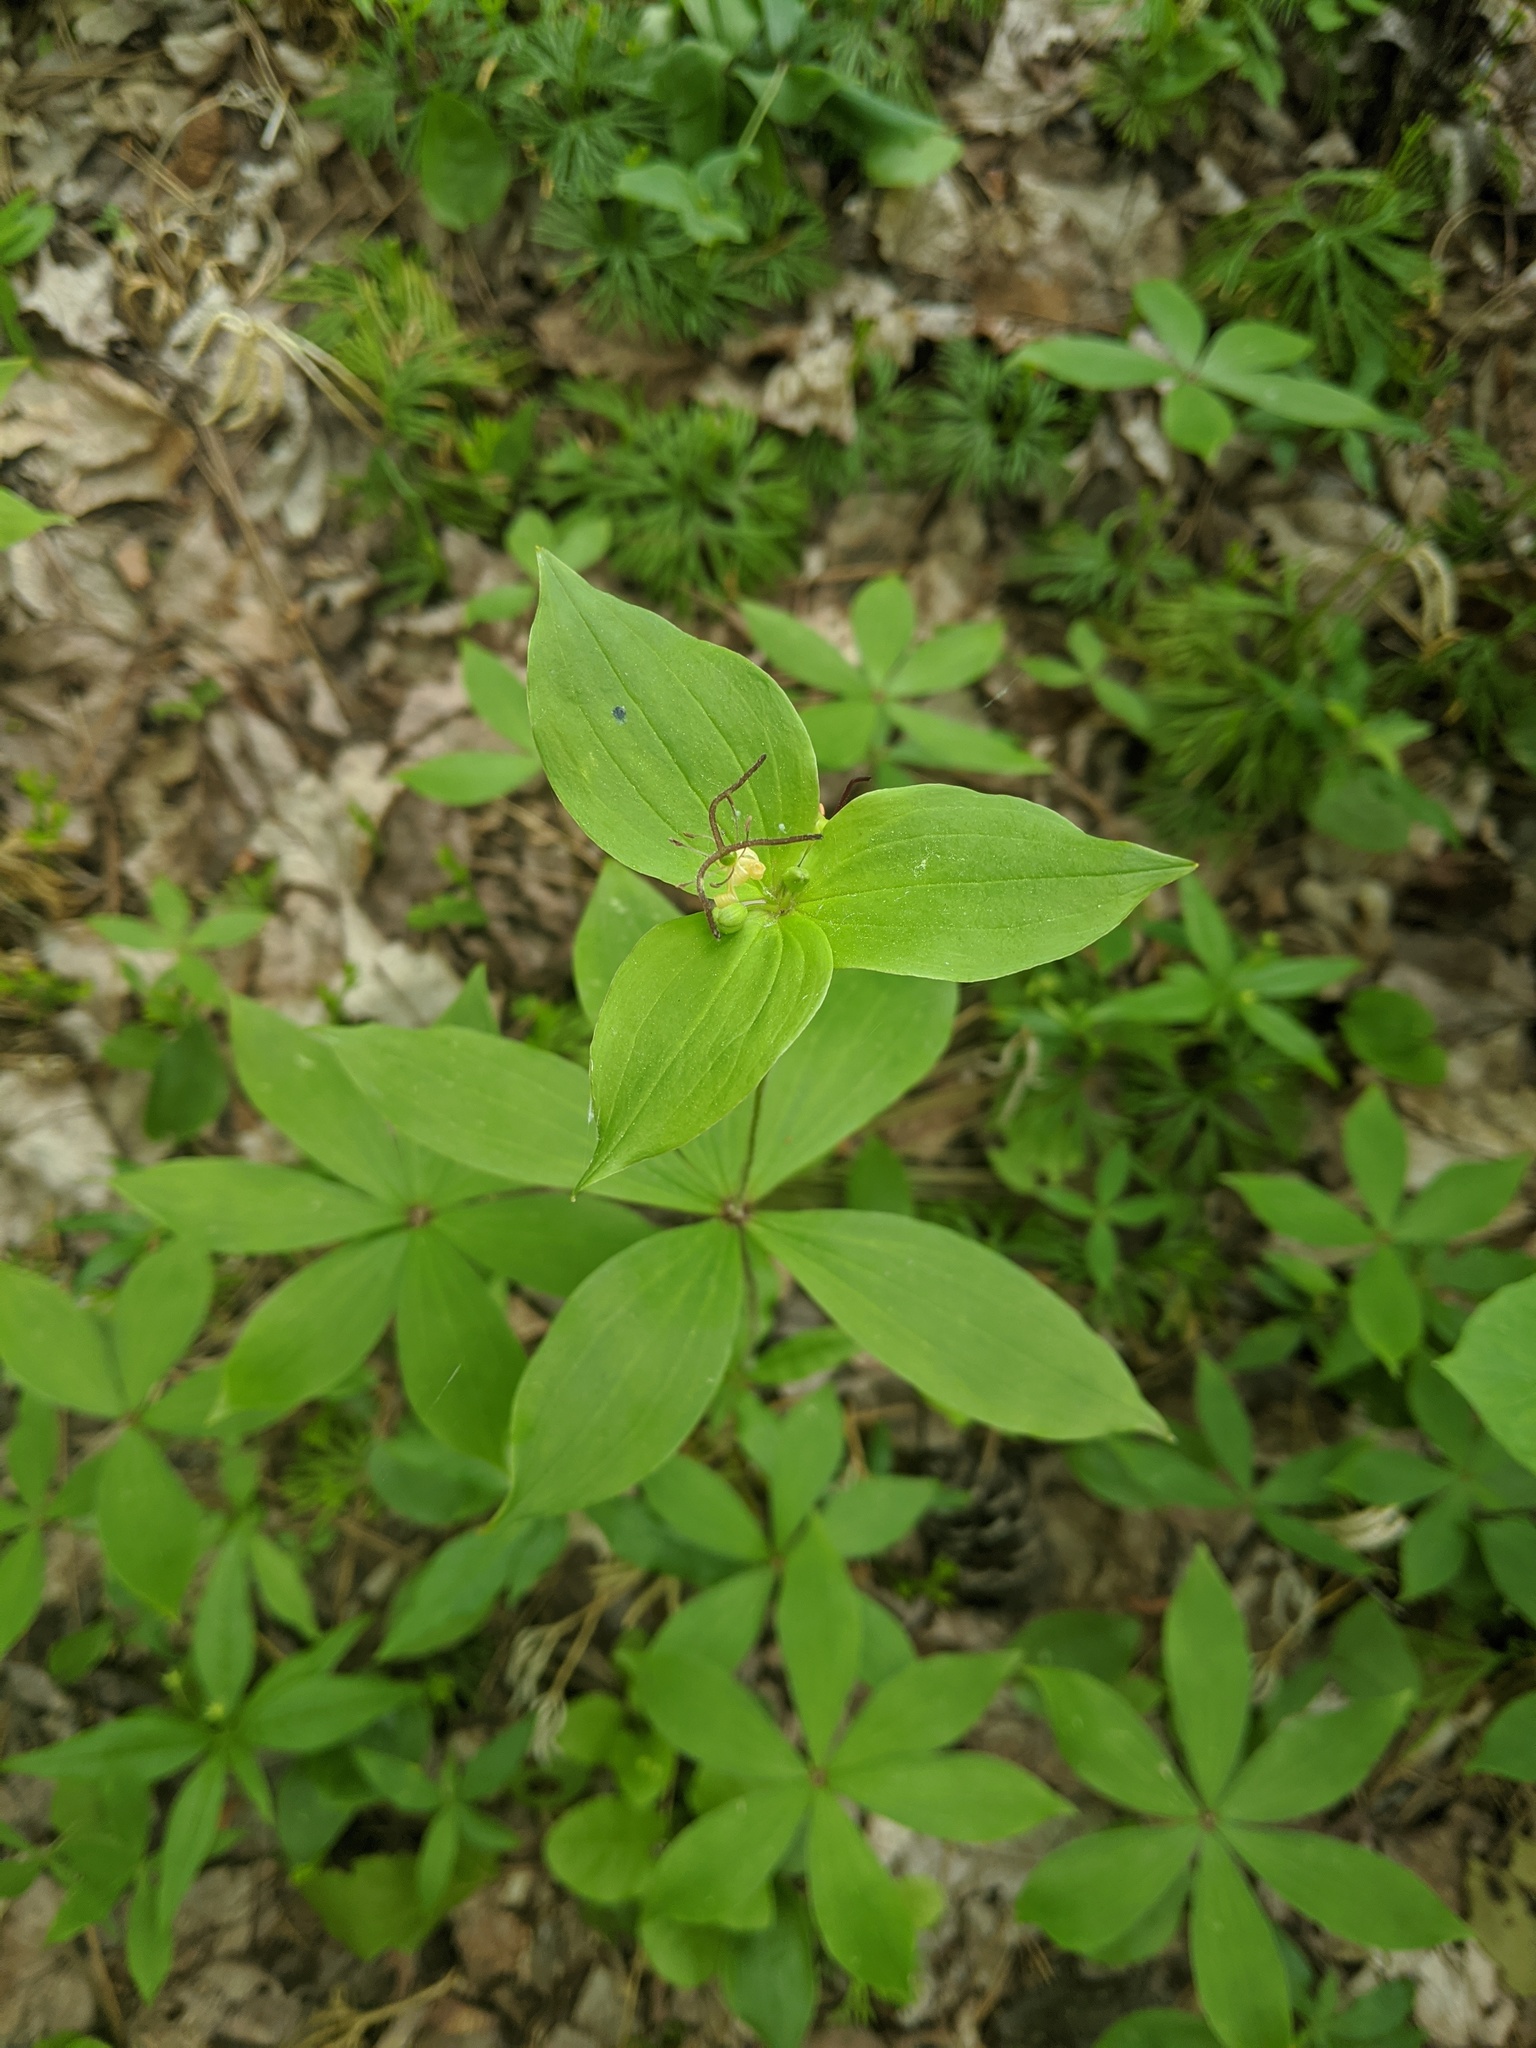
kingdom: Plantae
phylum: Tracheophyta
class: Liliopsida
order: Liliales
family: Liliaceae
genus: Medeola
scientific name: Medeola virginiana
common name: Indian cucumber-root
